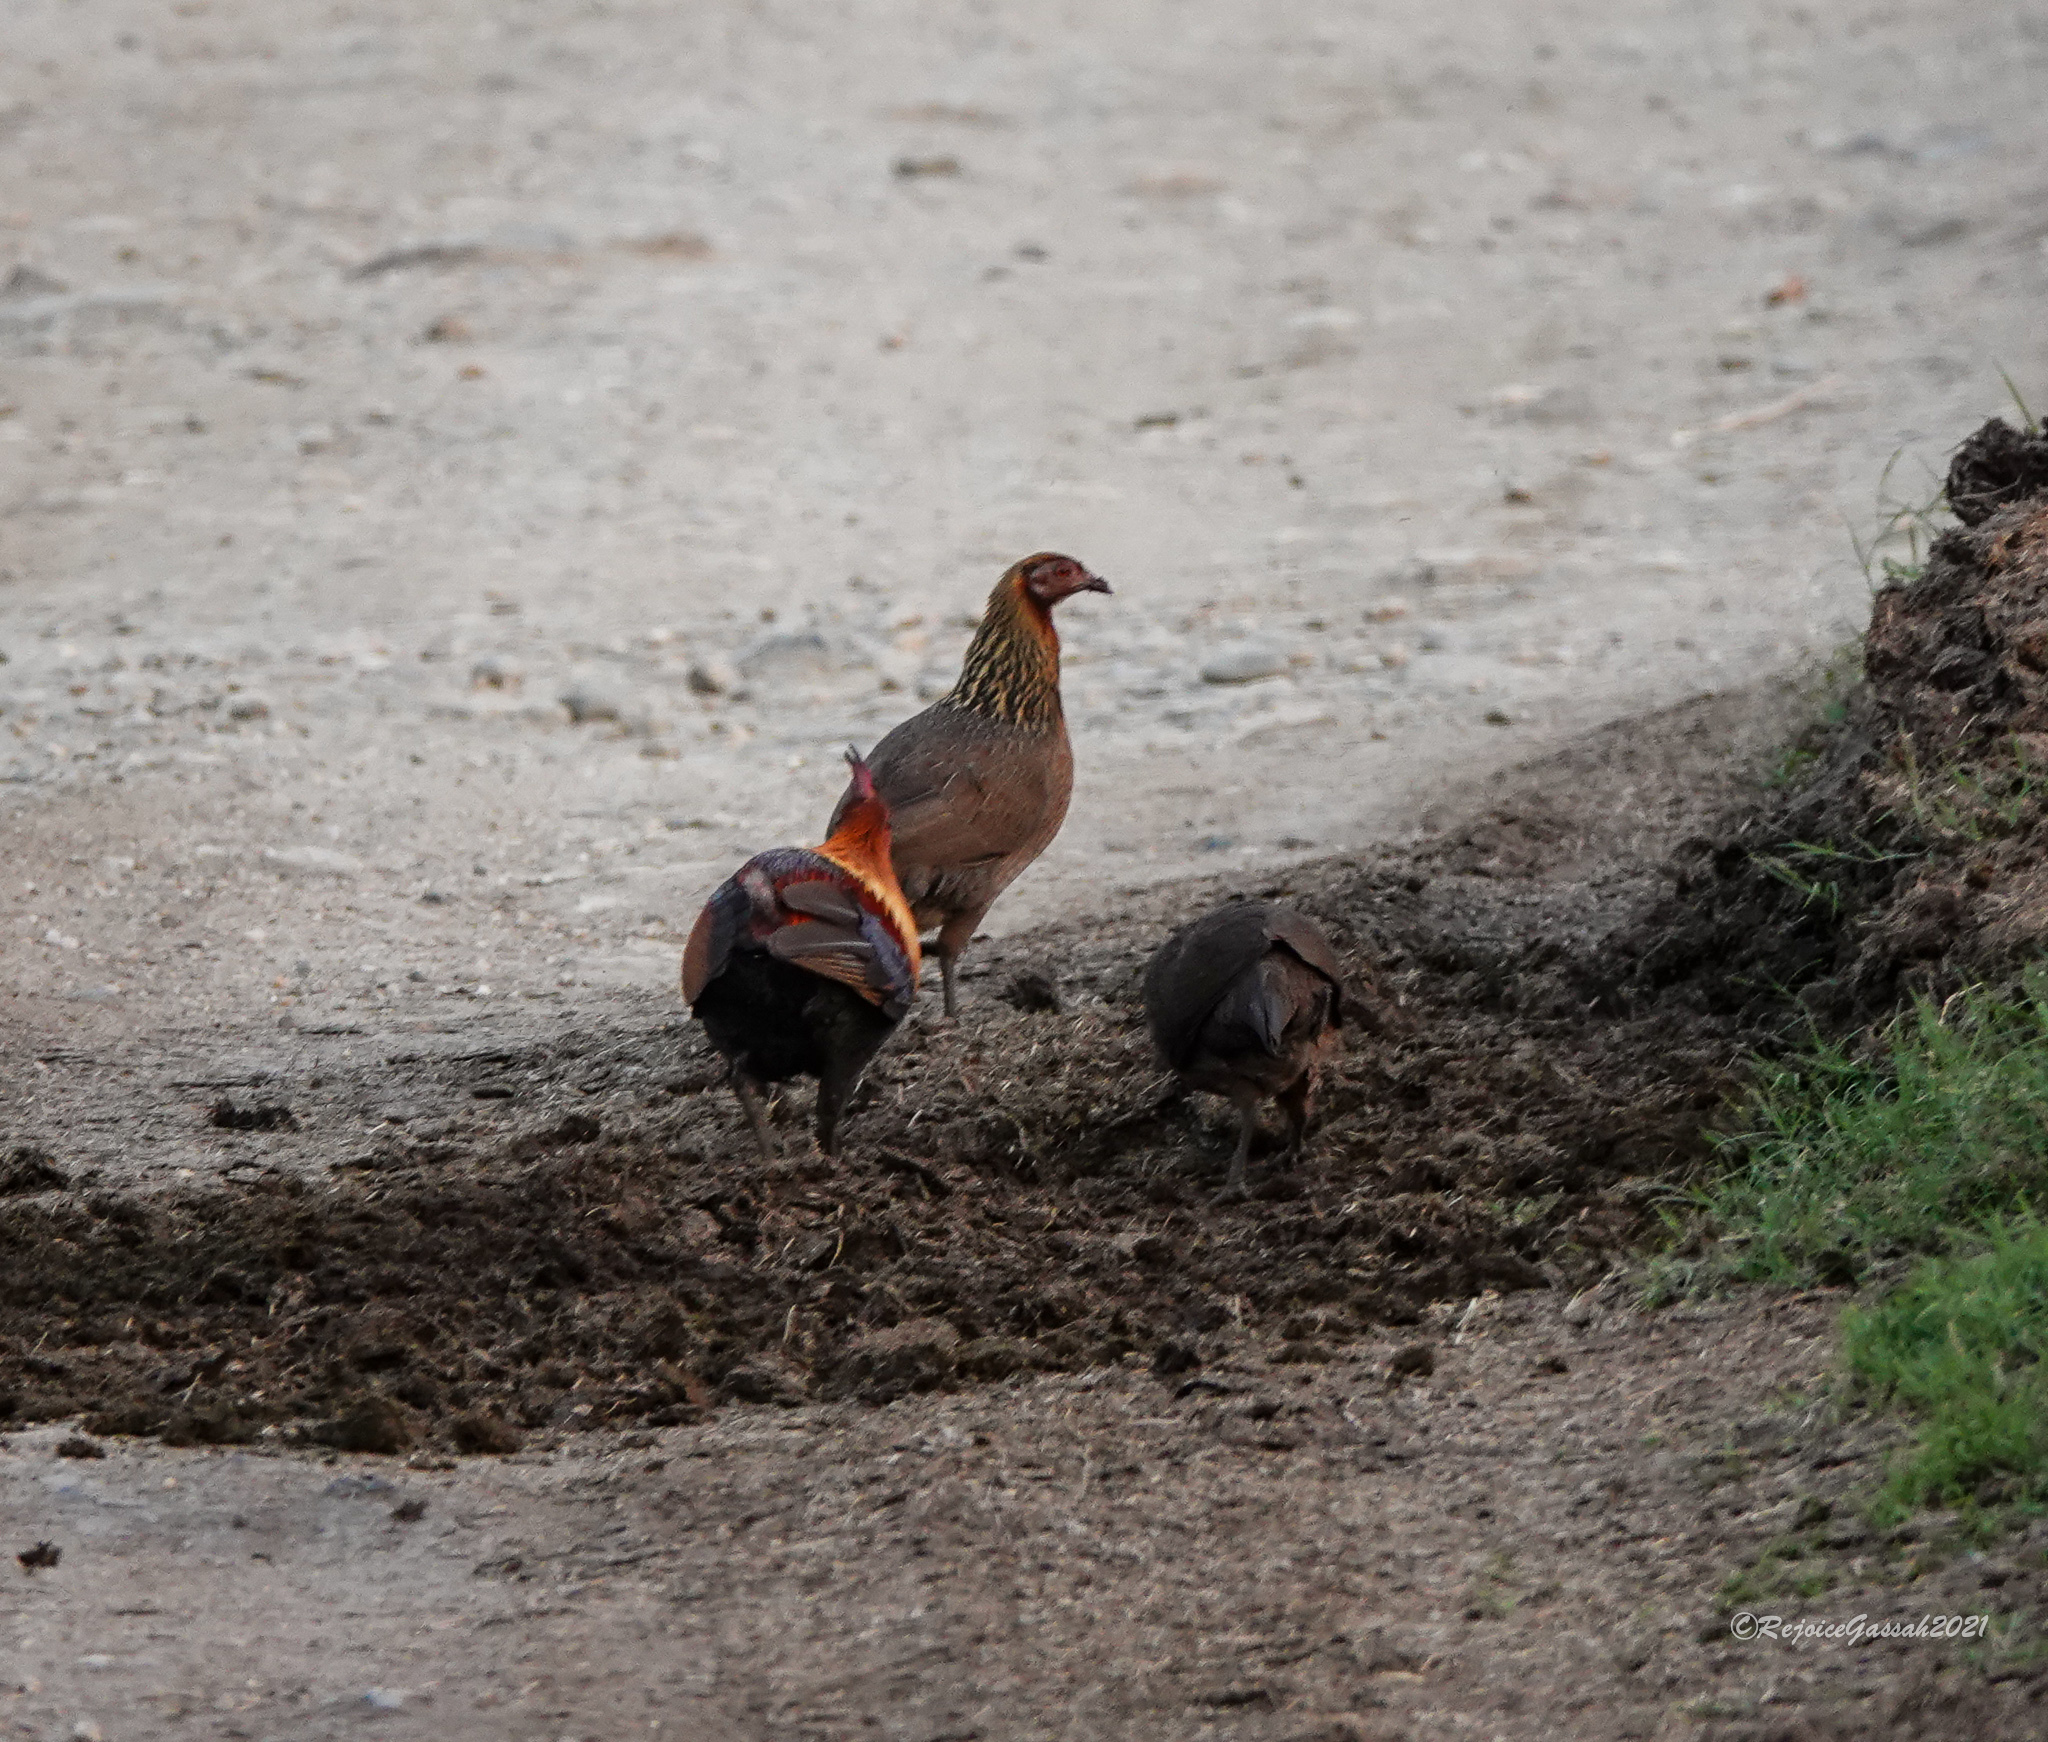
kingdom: Animalia
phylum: Chordata
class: Aves
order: Galliformes
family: Phasianidae
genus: Gallus
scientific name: Gallus gallus
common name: Red junglefowl
